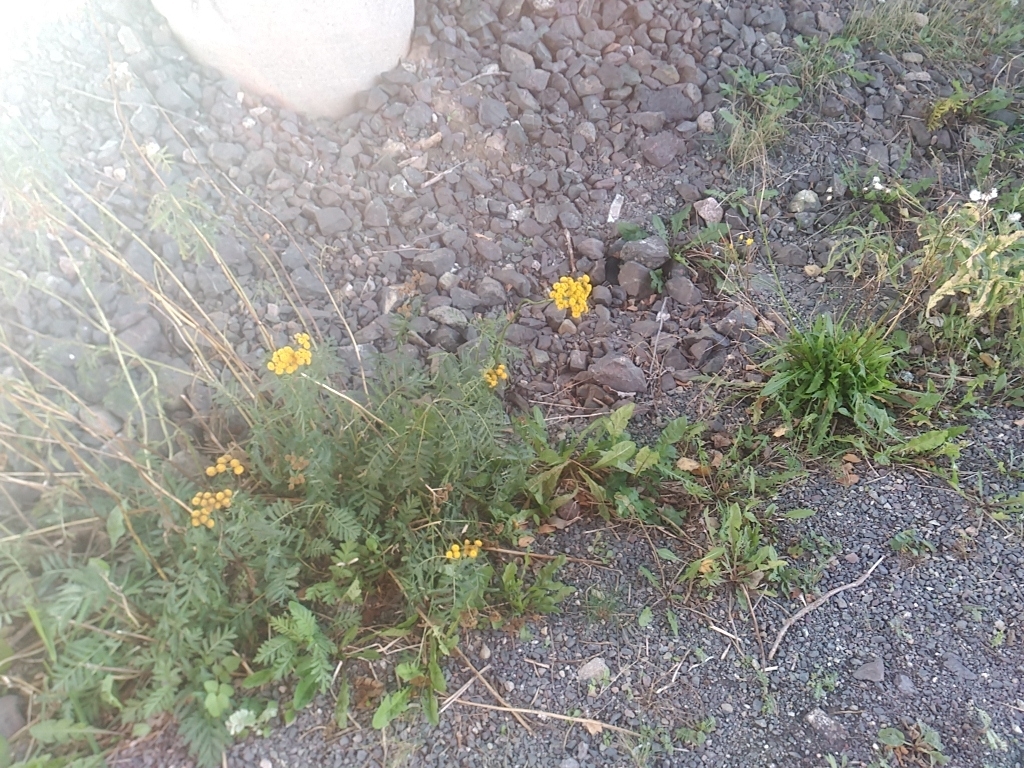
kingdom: Plantae
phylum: Tracheophyta
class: Magnoliopsida
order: Asterales
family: Asteraceae
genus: Tanacetum
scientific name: Tanacetum vulgare
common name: Common tansy
